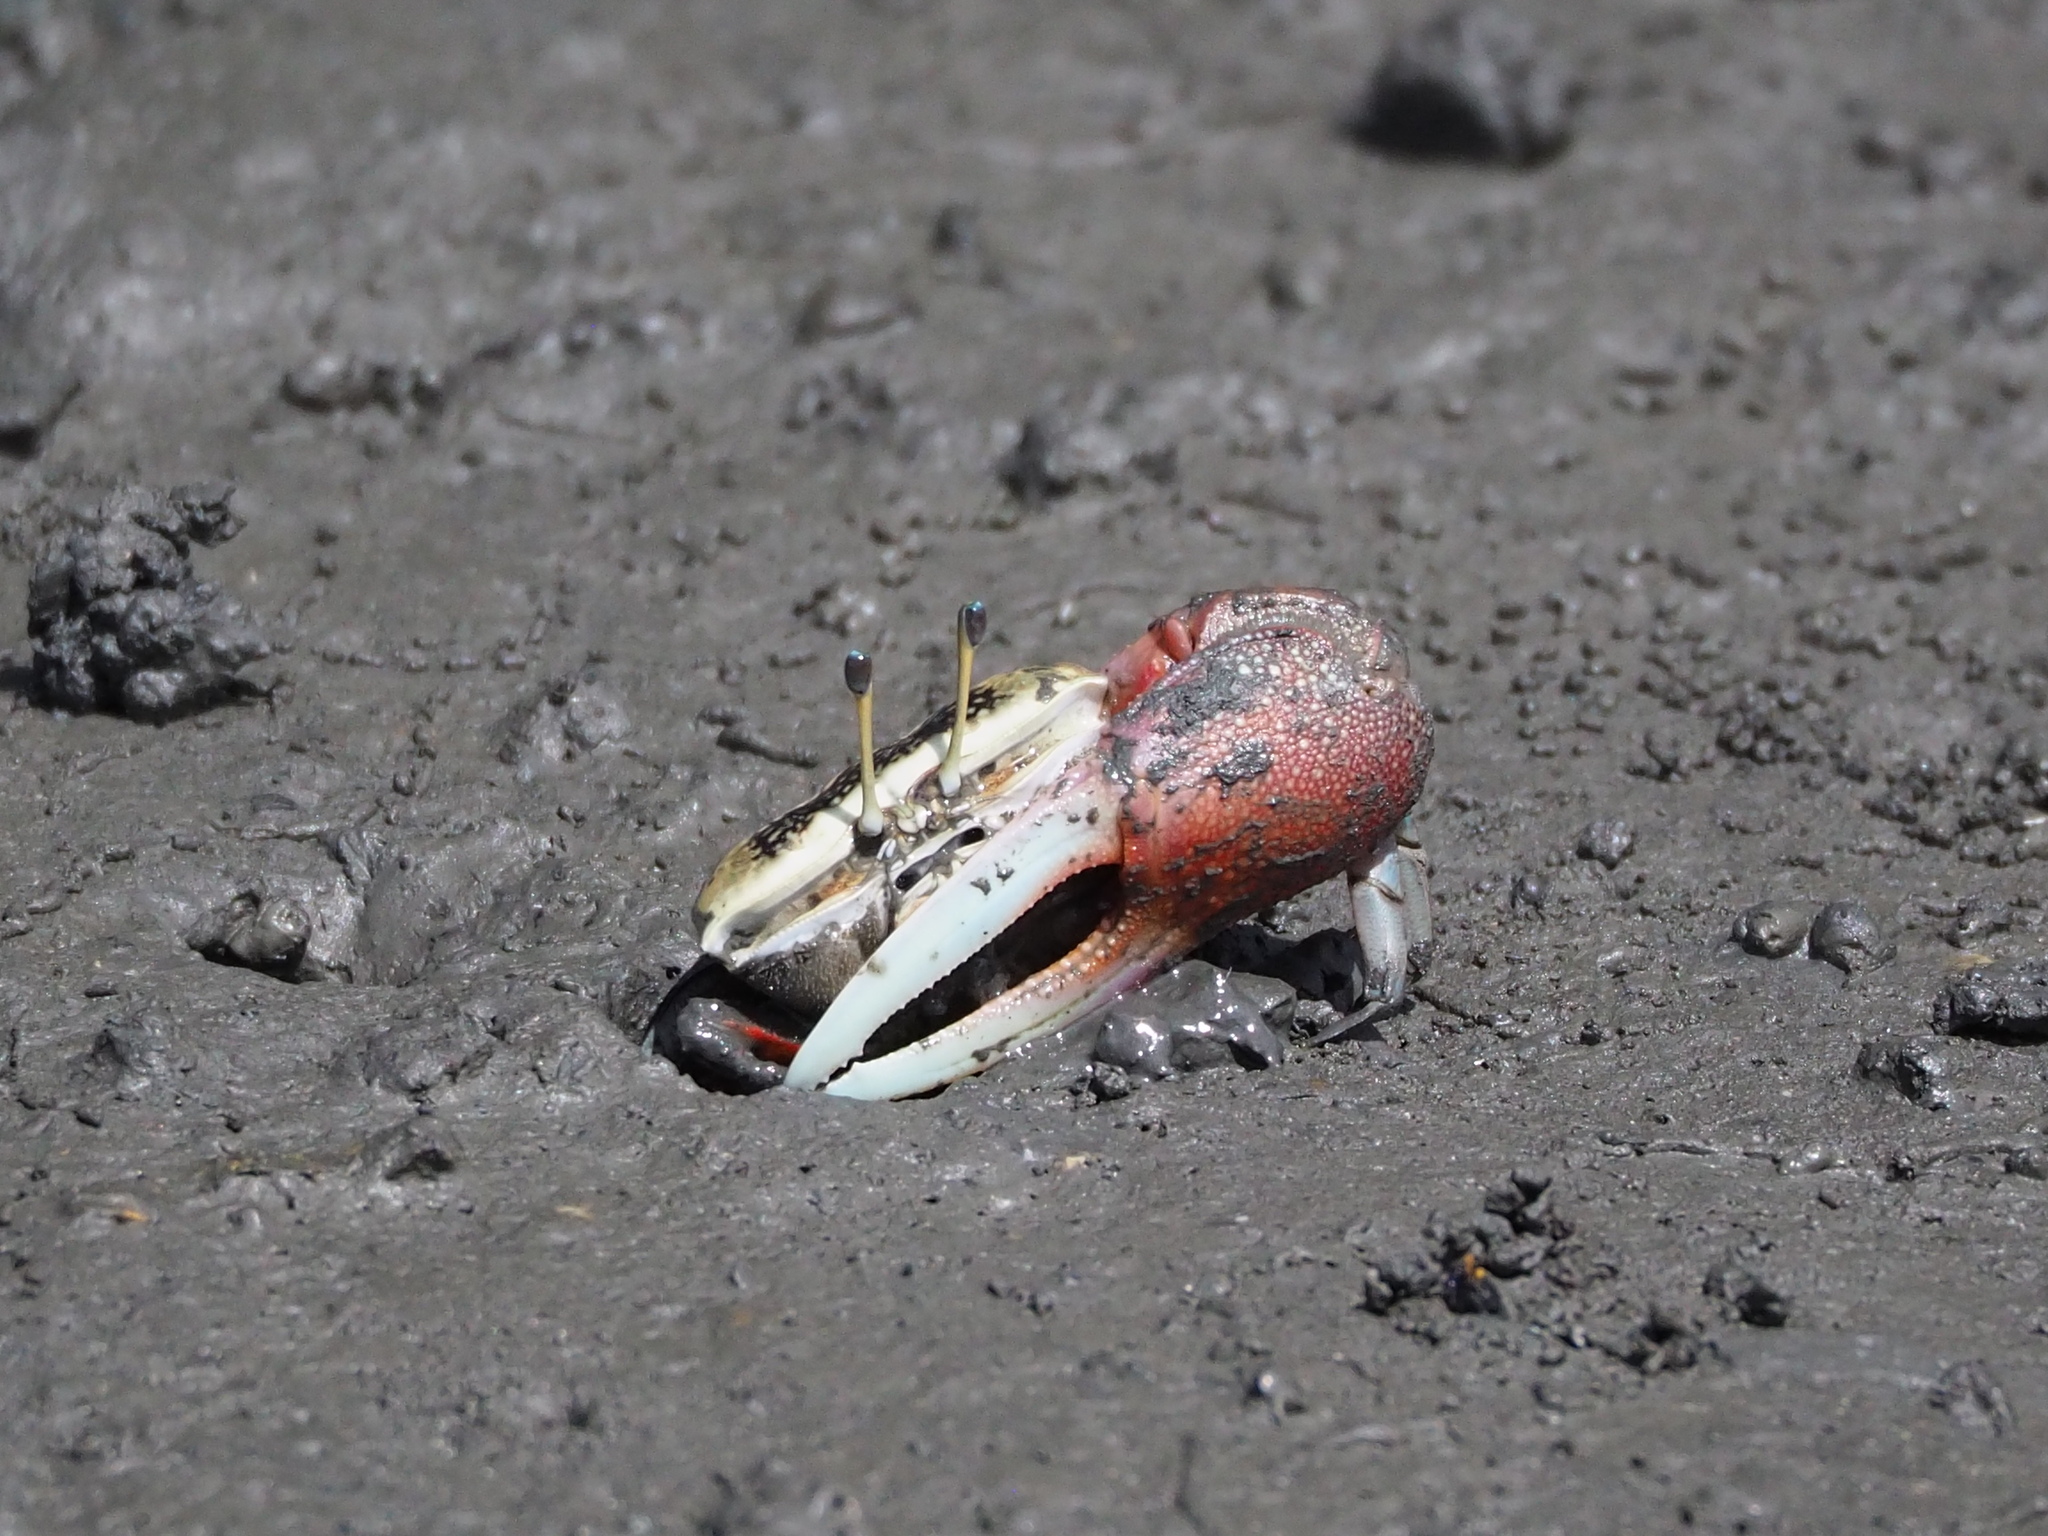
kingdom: Animalia
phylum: Arthropoda
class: Malacostraca
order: Decapoda
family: Ocypodidae
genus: Tubuca
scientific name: Tubuca arcuata
